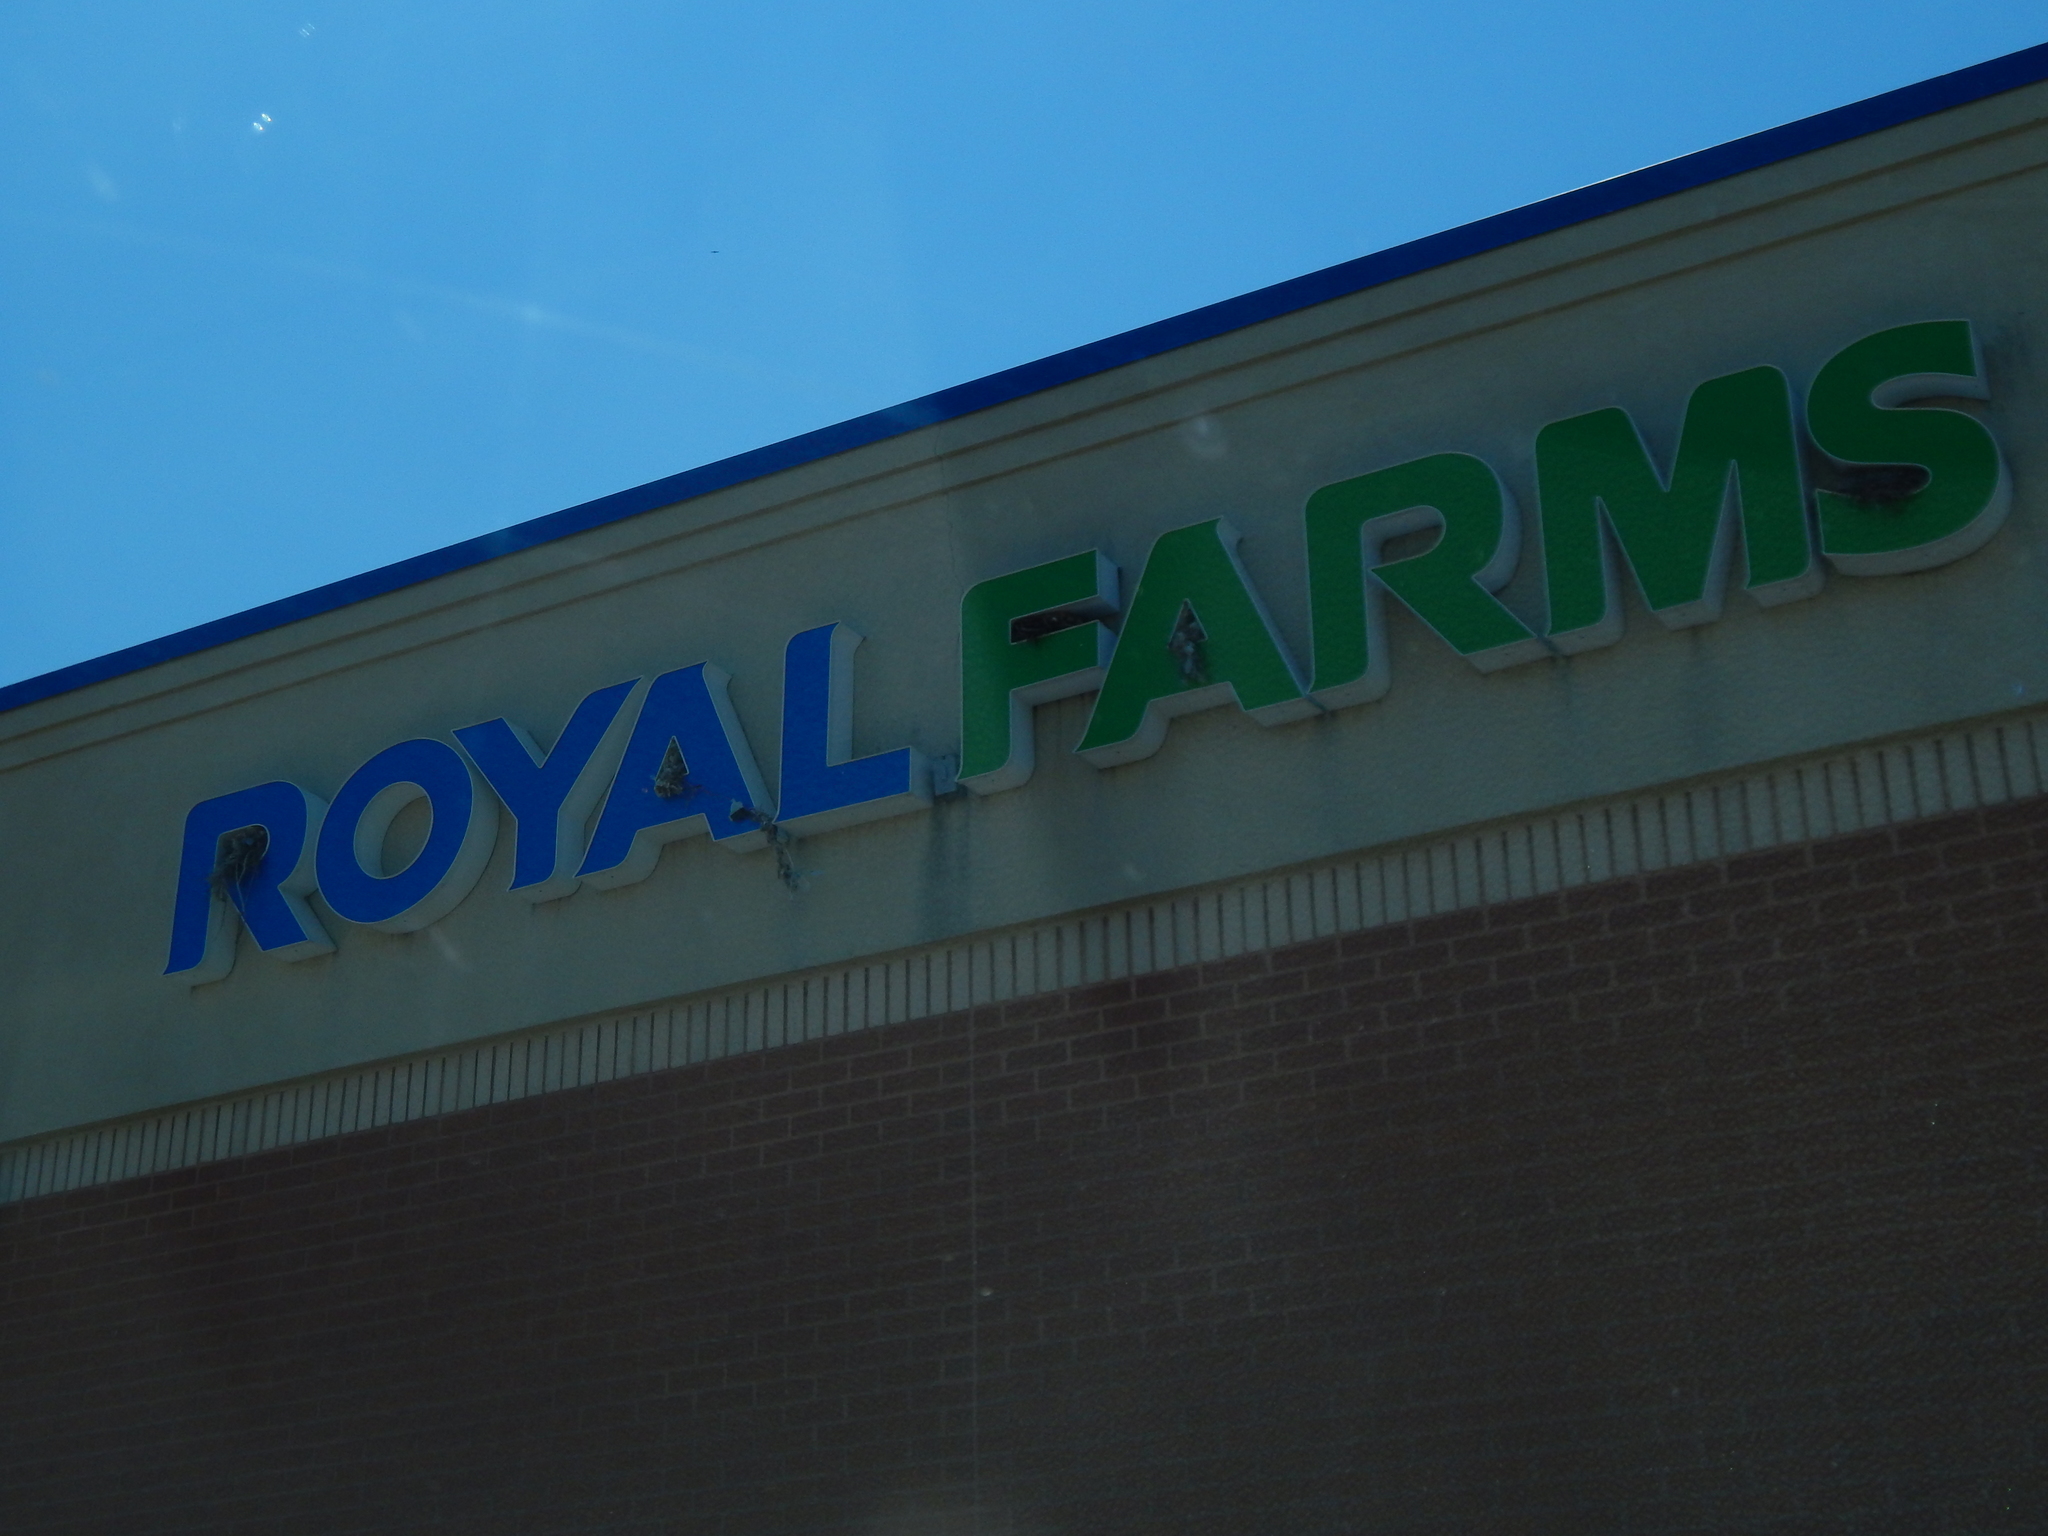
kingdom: Animalia
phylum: Chordata
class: Aves
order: Passeriformes
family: Passeridae
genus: Passer
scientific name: Passer domesticus
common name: House sparrow
